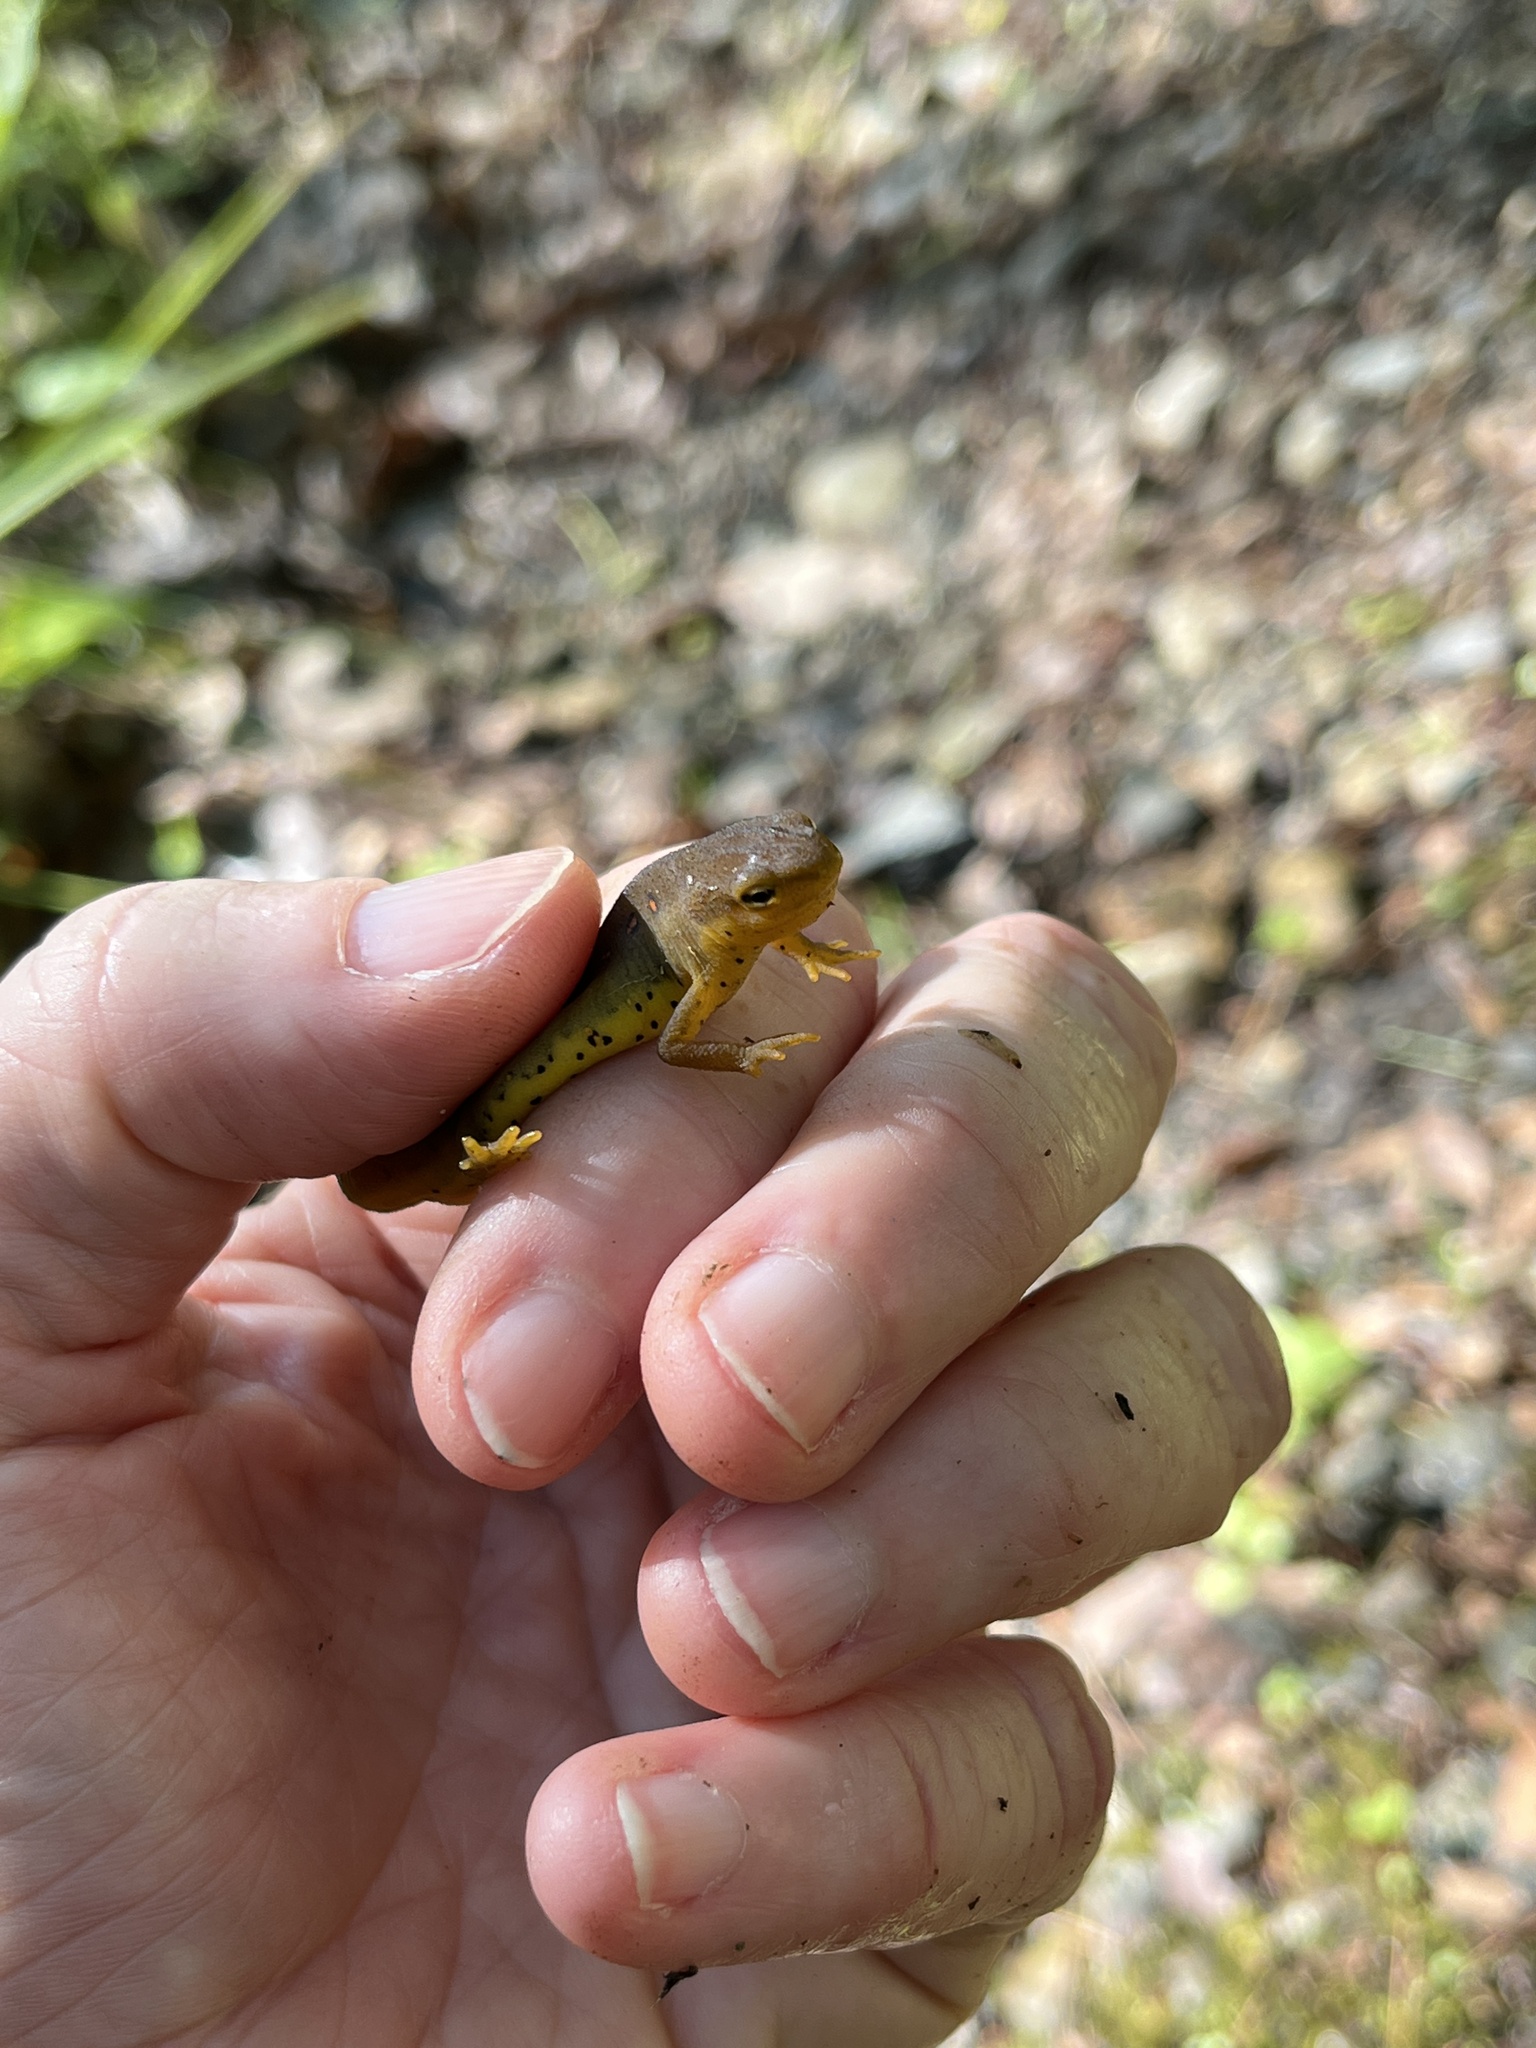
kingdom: Animalia
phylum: Chordata
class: Amphibia
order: Caudata
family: Salamandridae
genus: Notophthalmus
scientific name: Notophthalmus viridescens
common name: Eastern newt
